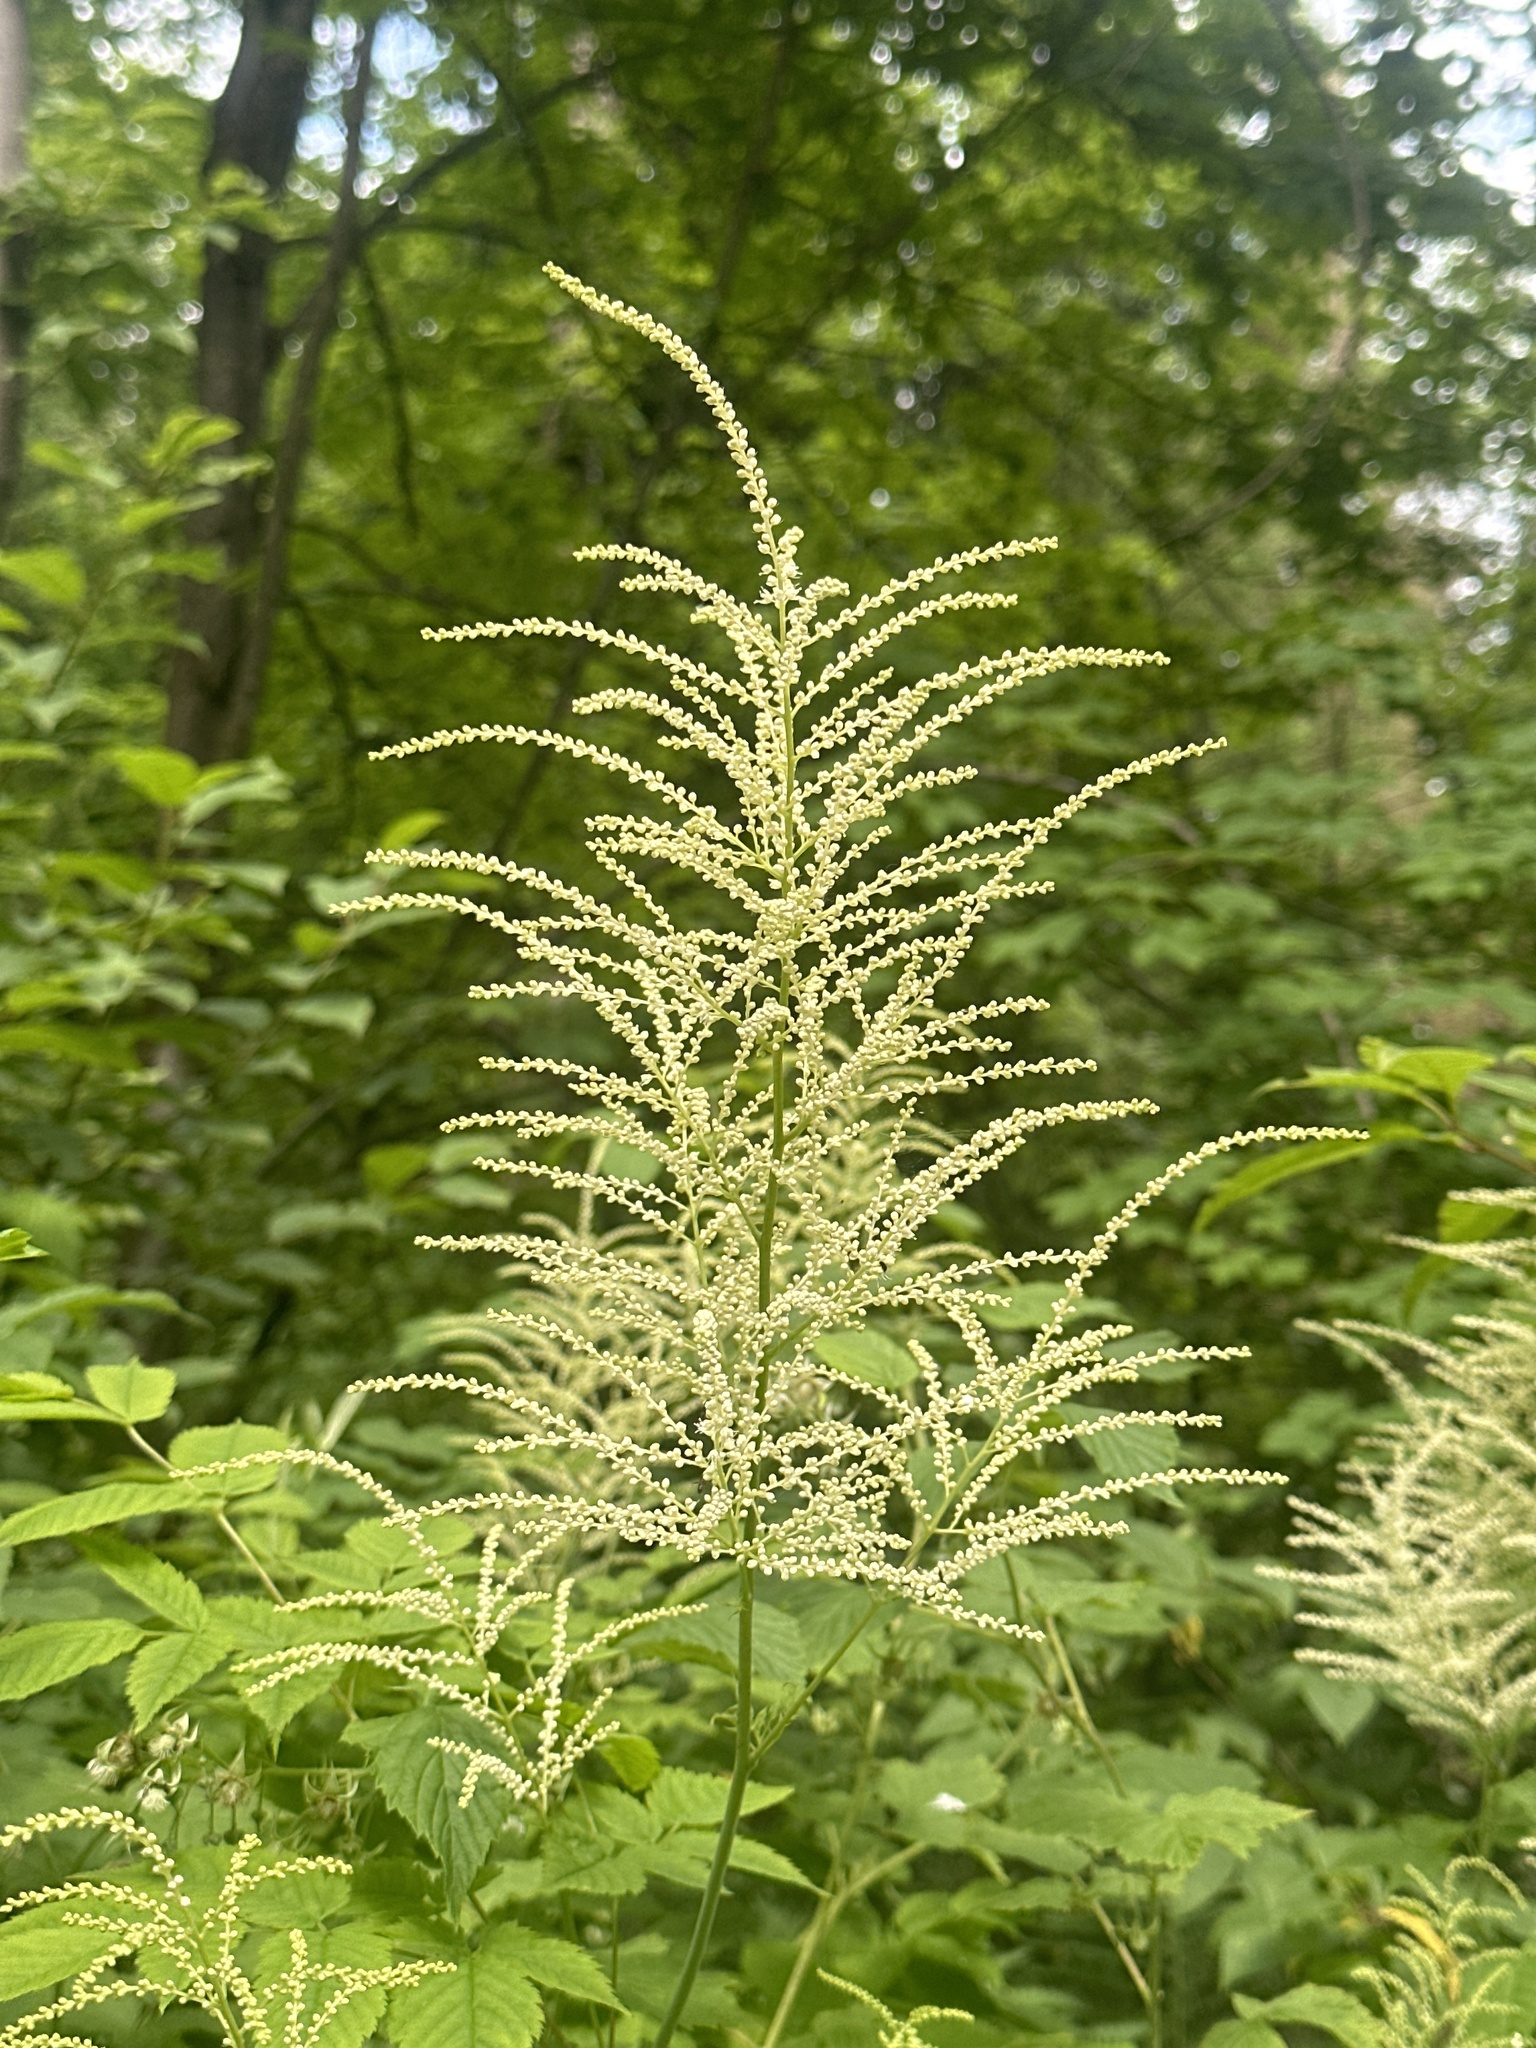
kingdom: Plantae
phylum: Tracheophyta
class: Magnoliopsida
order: Rosales
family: Rosaceae
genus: Aruncus
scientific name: Aruncus dioicus
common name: Buck's-beard
